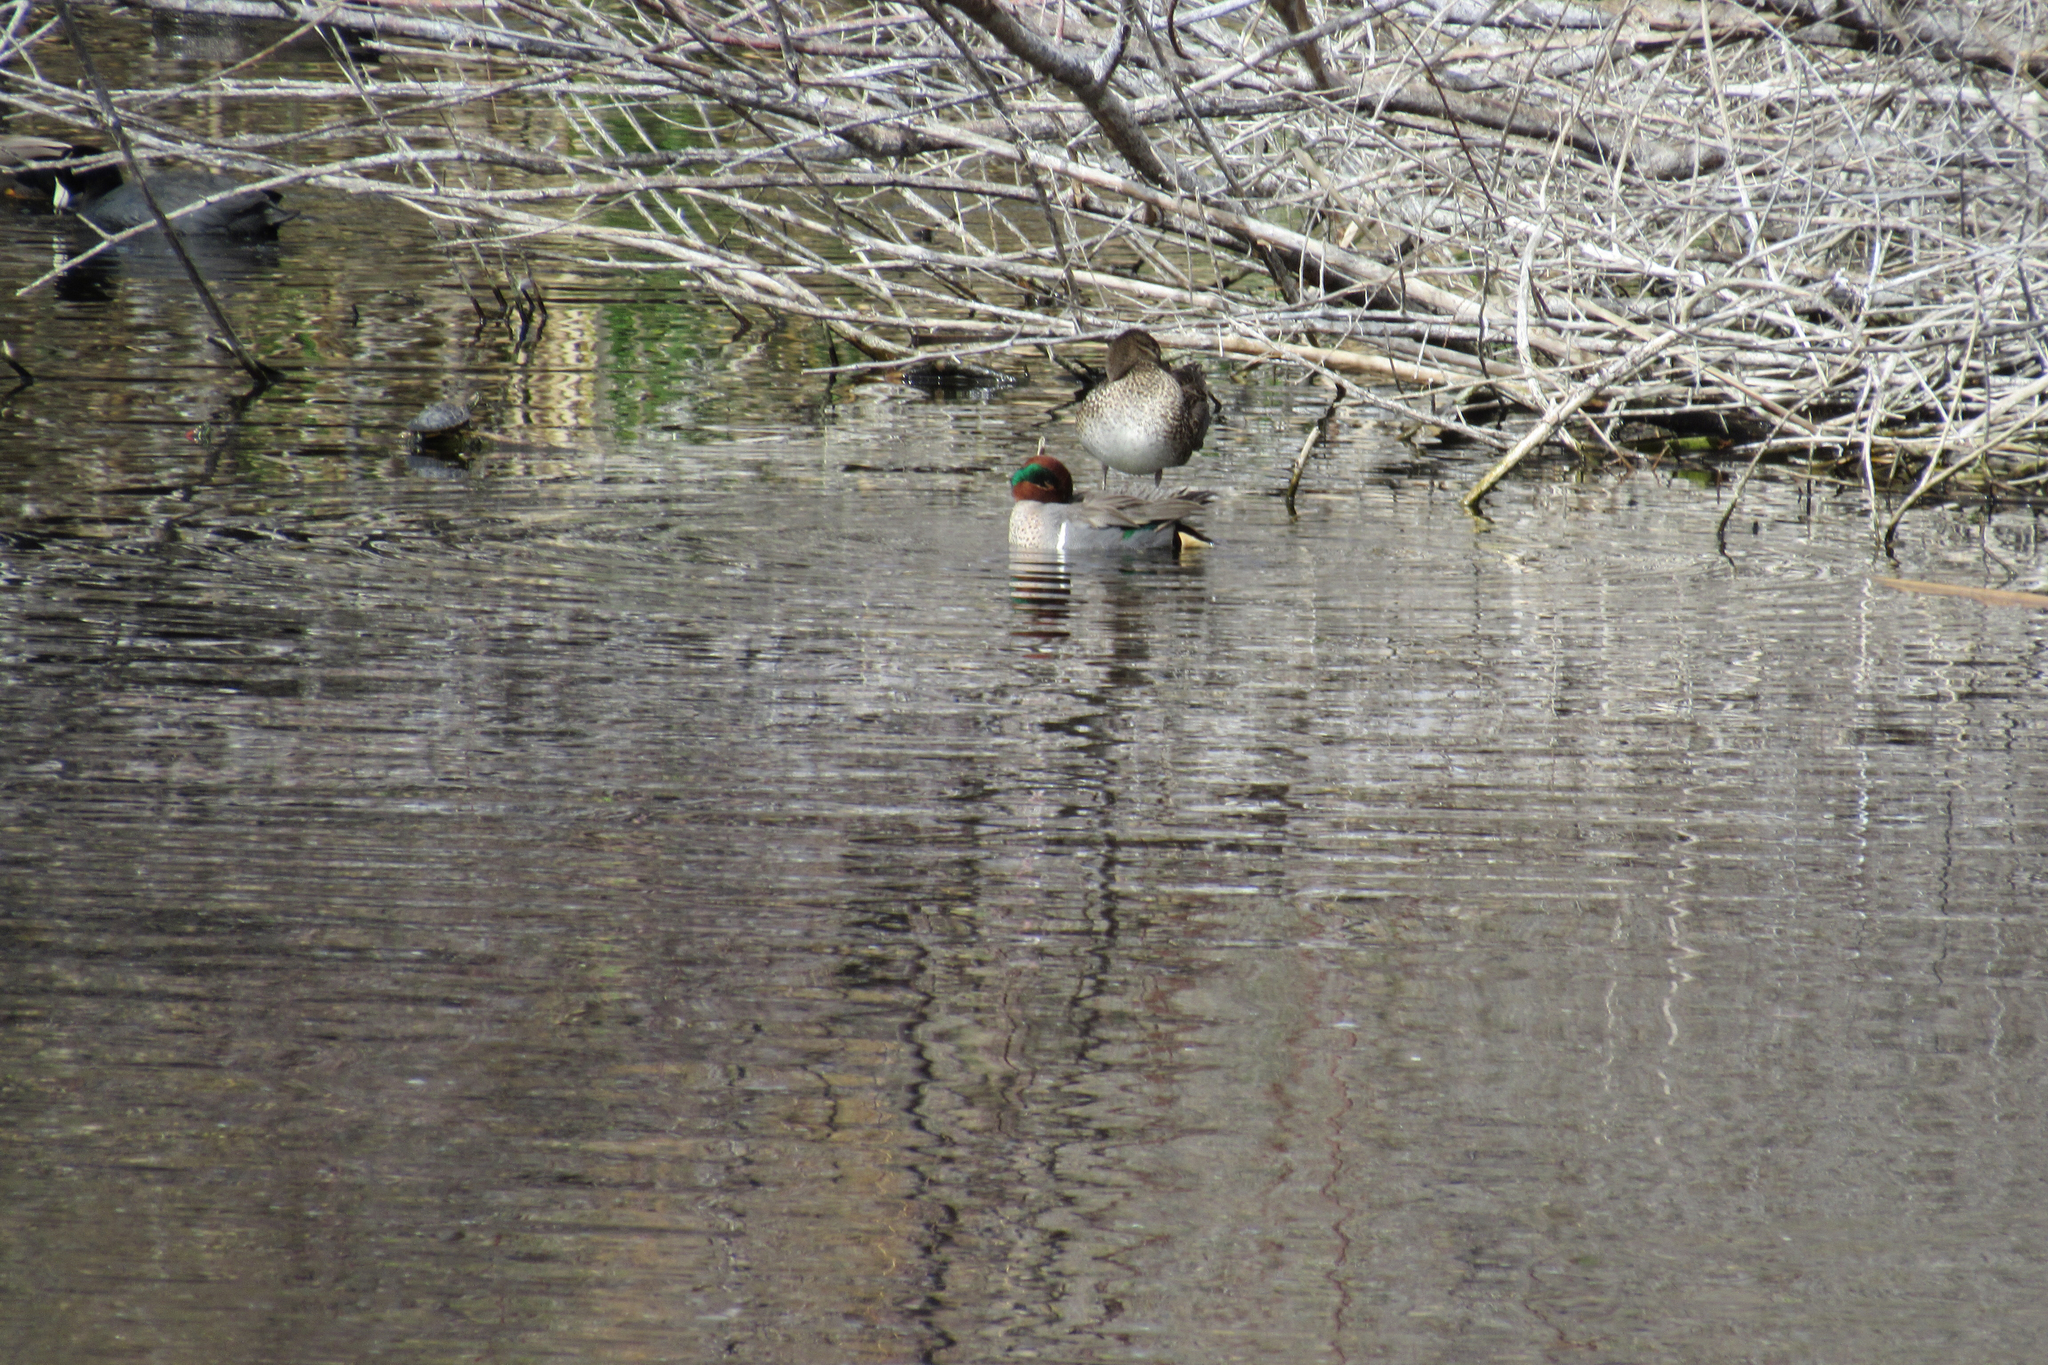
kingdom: Animalia
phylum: Chordata
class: Aves
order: Anseriformes
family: Anatidae
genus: Anas
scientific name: Anas crecca
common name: Eurasian teal
